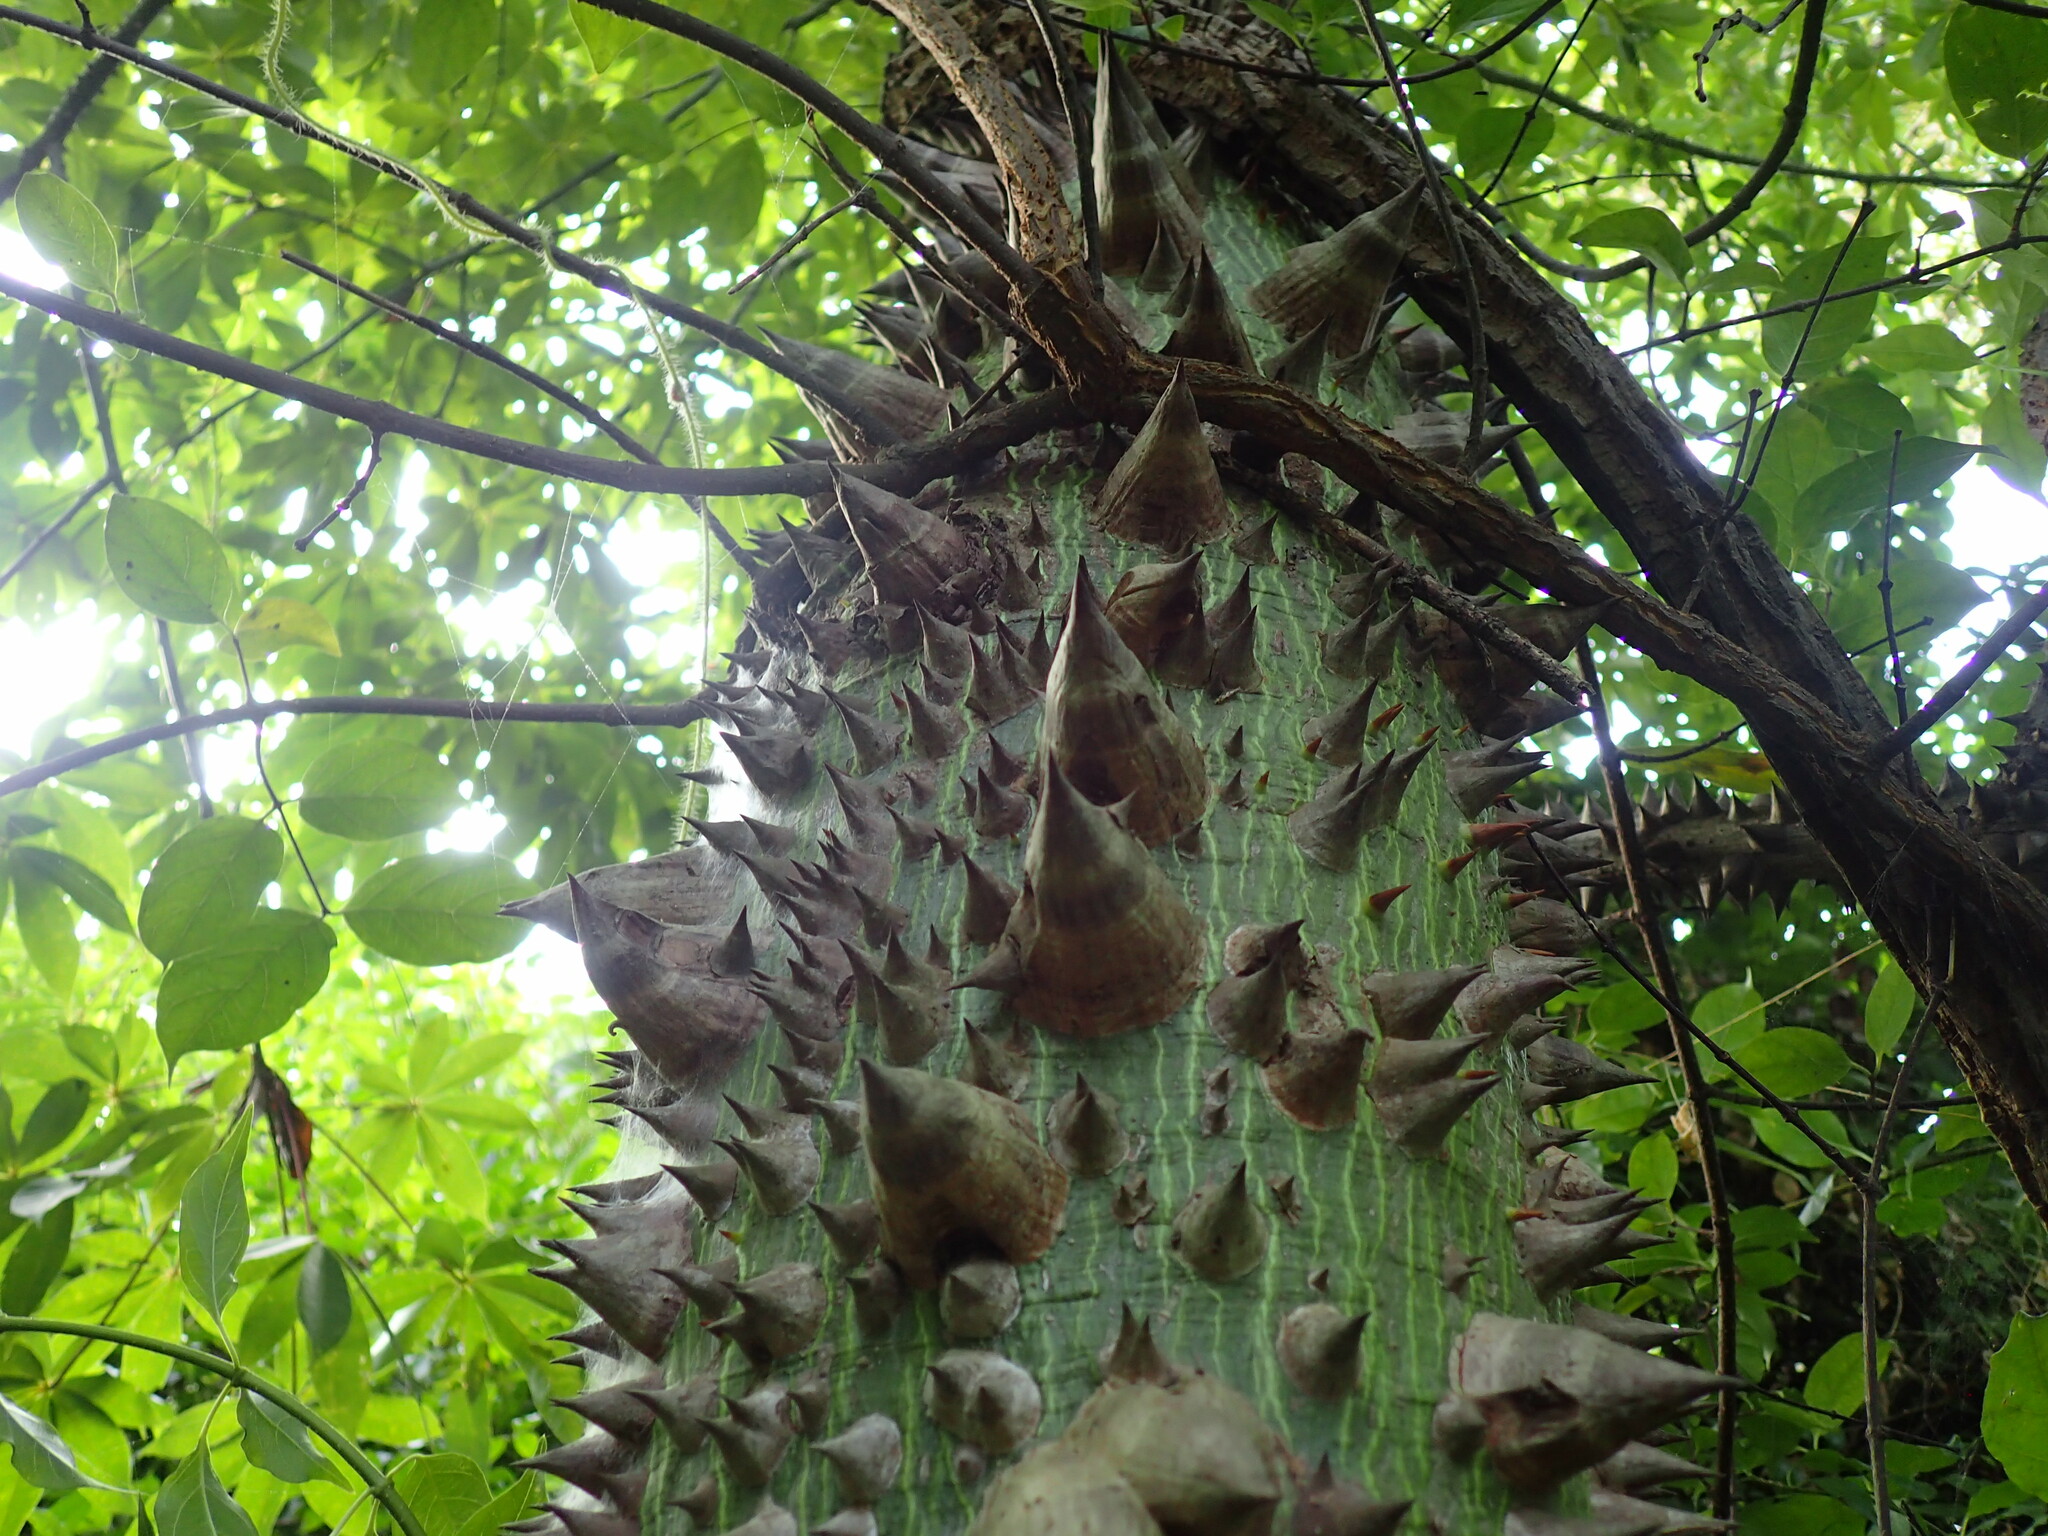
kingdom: Plantae
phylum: Tracheophyta
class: Magnoliopsida
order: Malvales
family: Malvaceae
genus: Ceiba
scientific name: Ceiba pentandra
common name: Kapok
